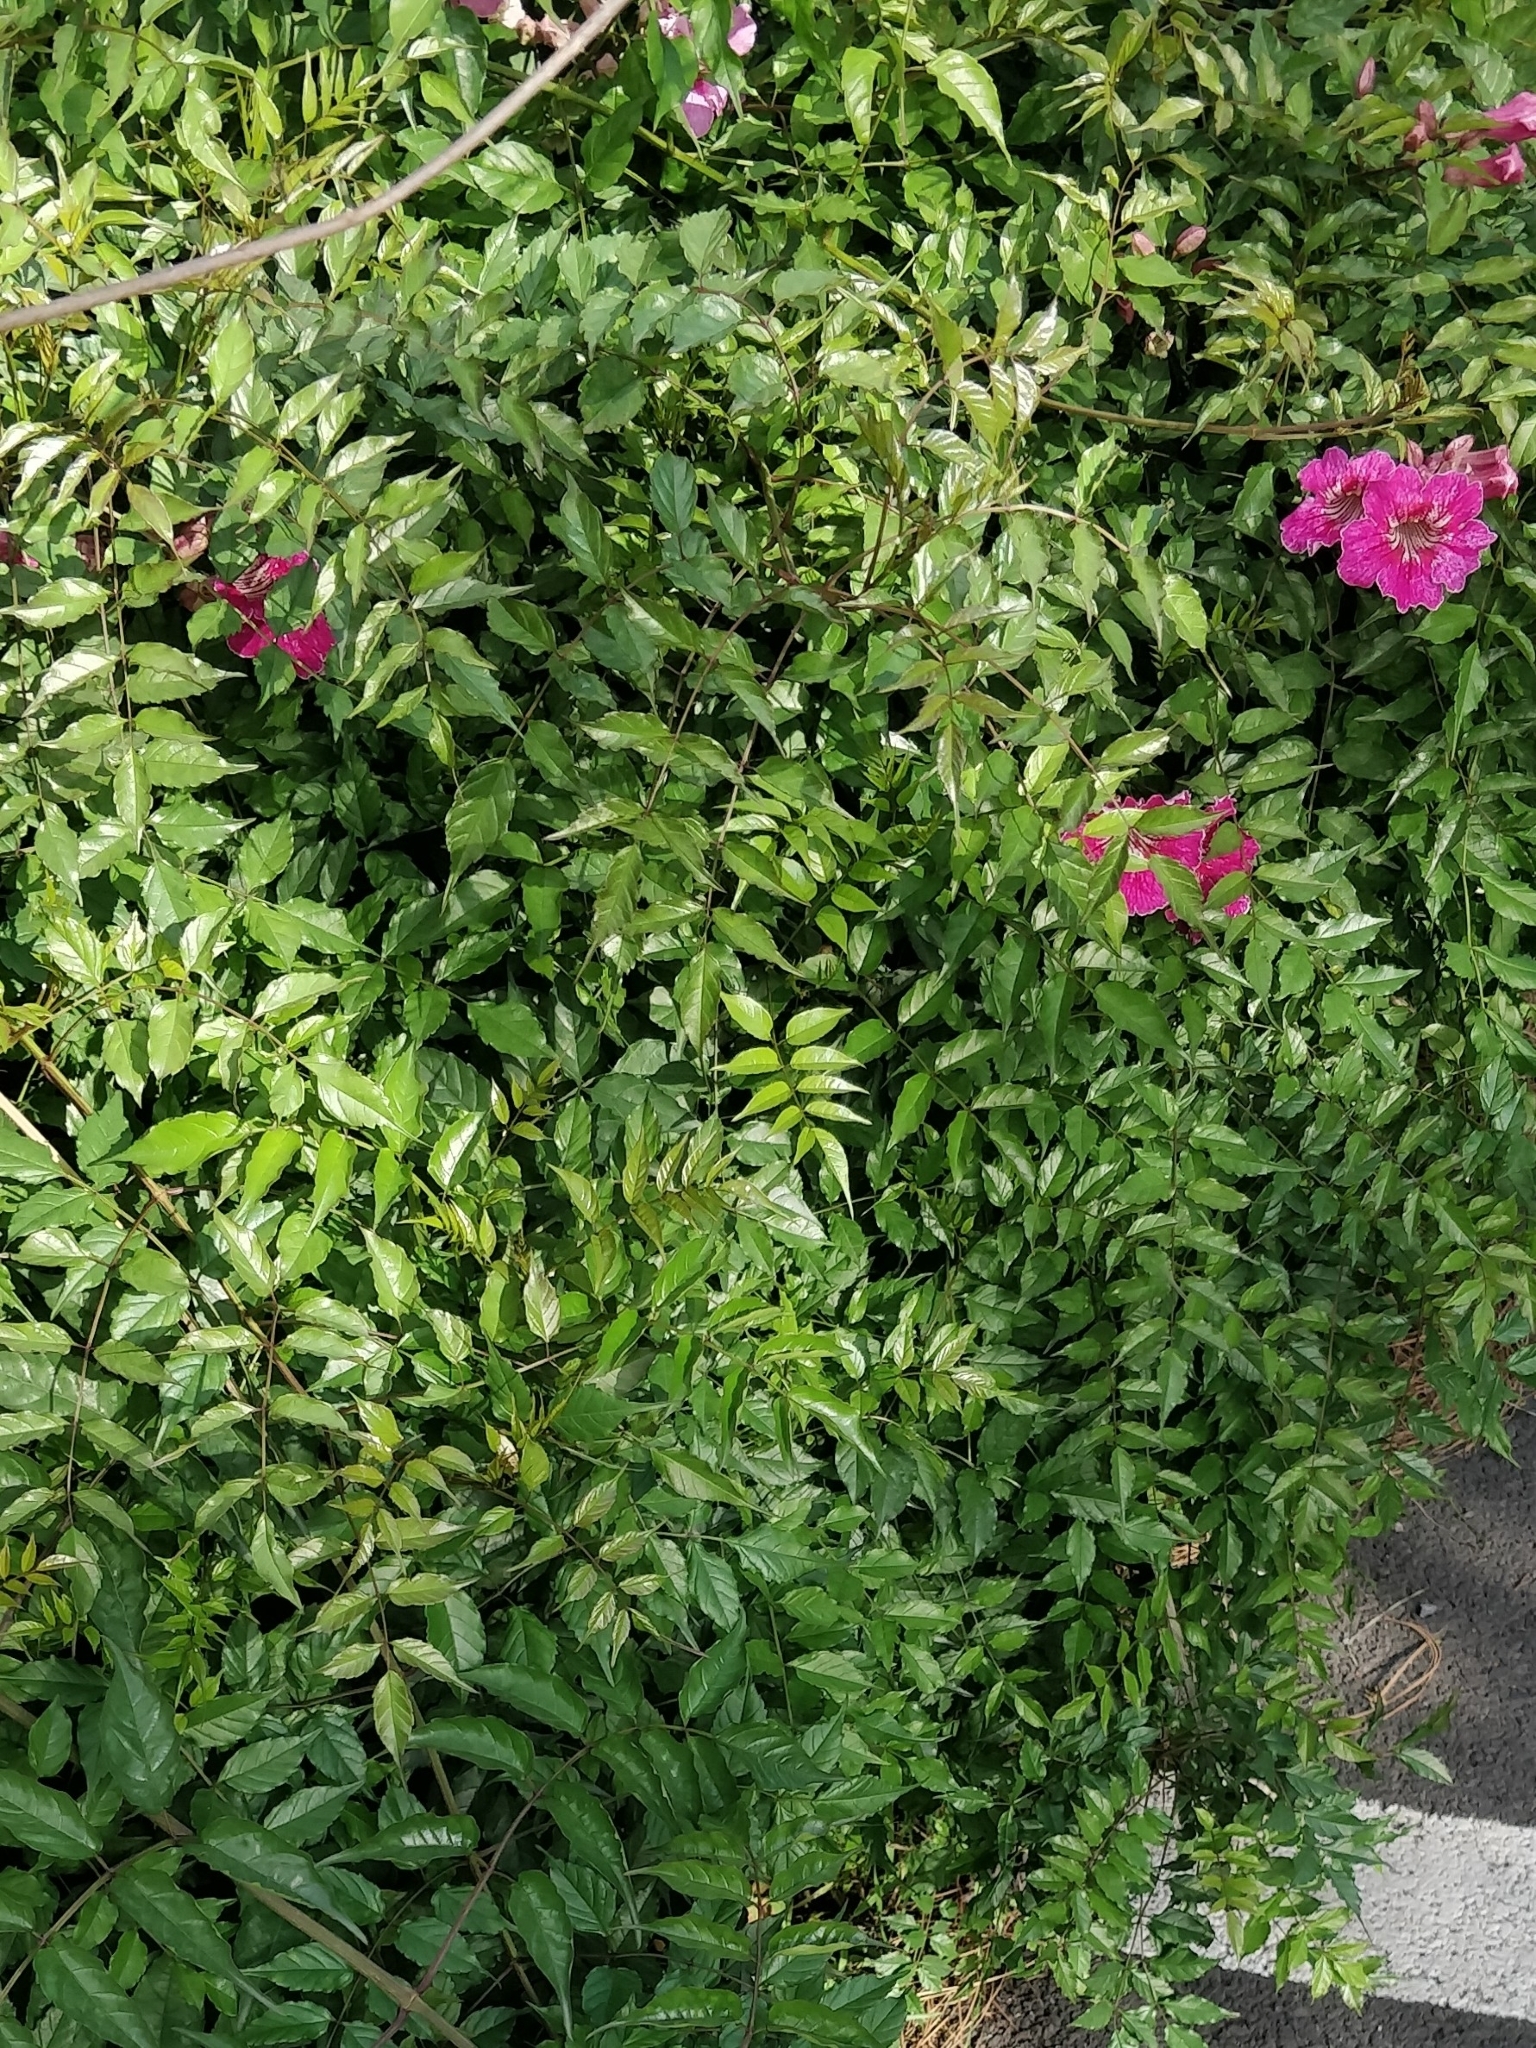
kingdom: Plantae
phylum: Tracheophyta
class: Magnoliopsida
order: Lamiales
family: Bignoniaceae
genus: Podranea
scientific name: Podranea ricasoliana
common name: Zimbabwe creeper
